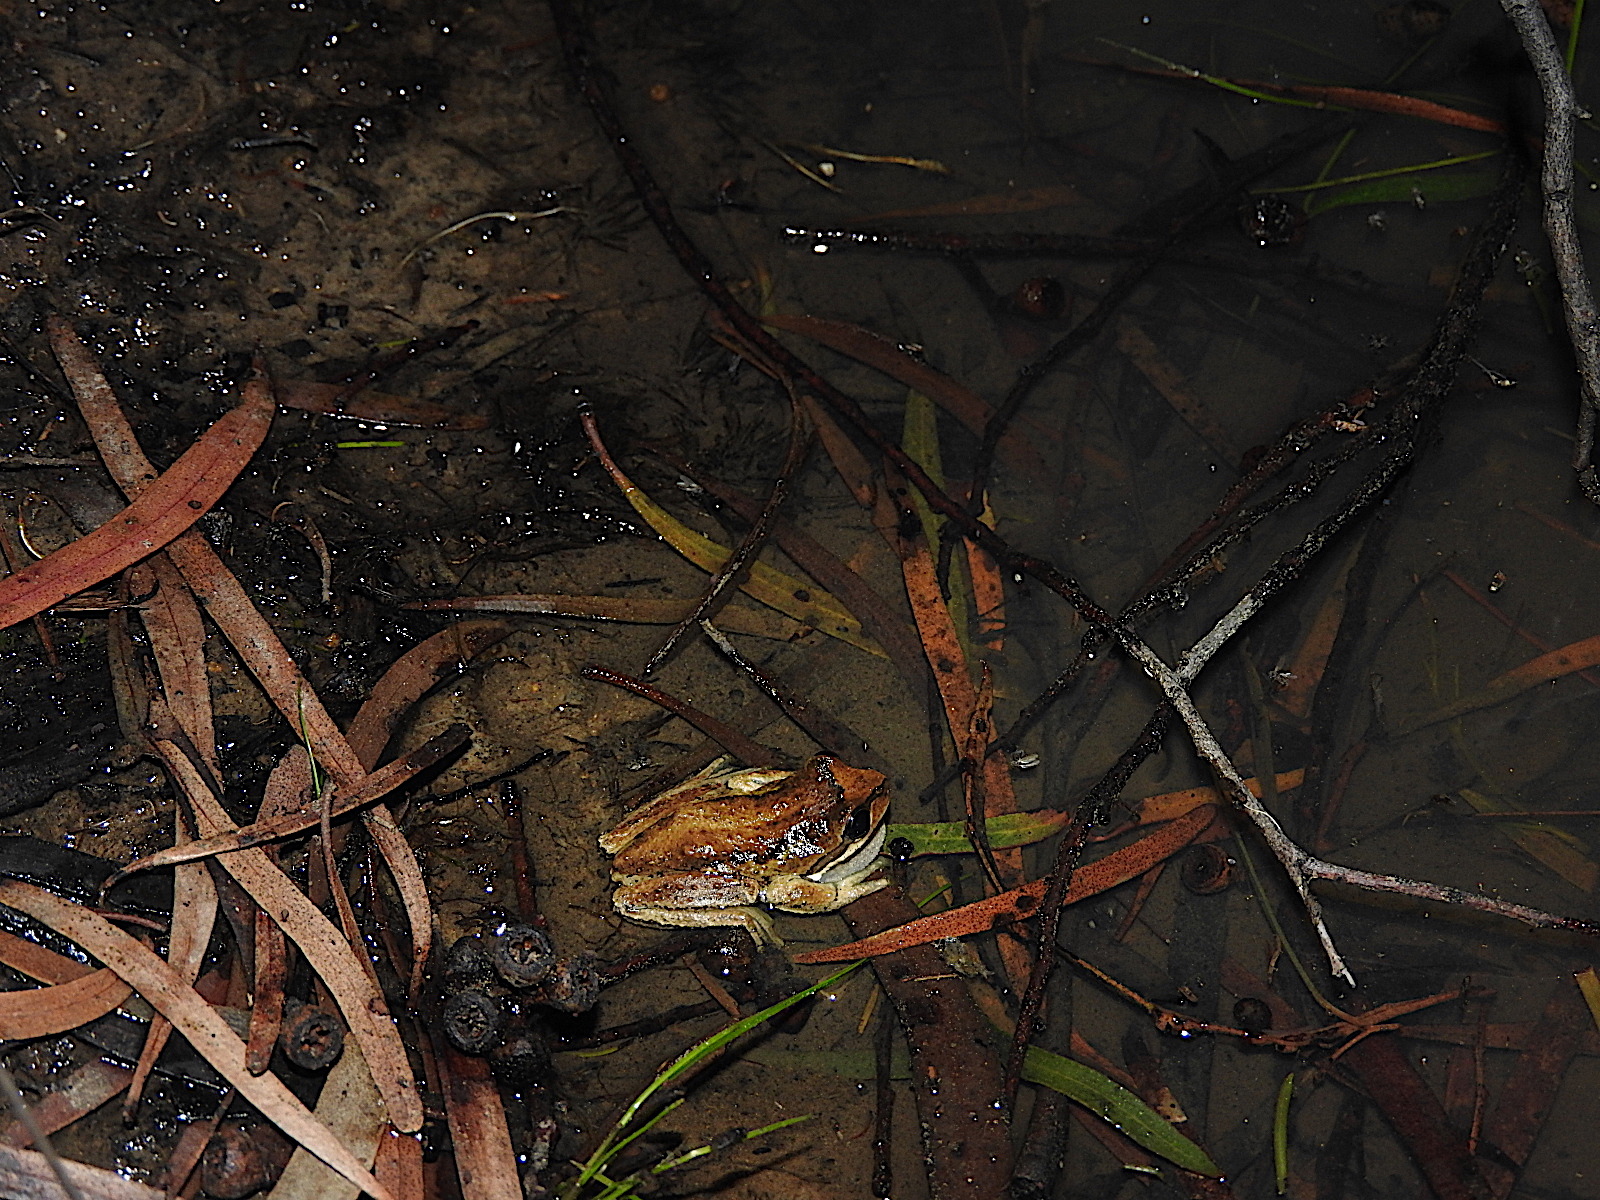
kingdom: Animalia
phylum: Chordata
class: Amphibia
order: Anura
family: Pelodryadidae
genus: Litoria
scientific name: Litoria ewingii
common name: Southern brown tree frog
